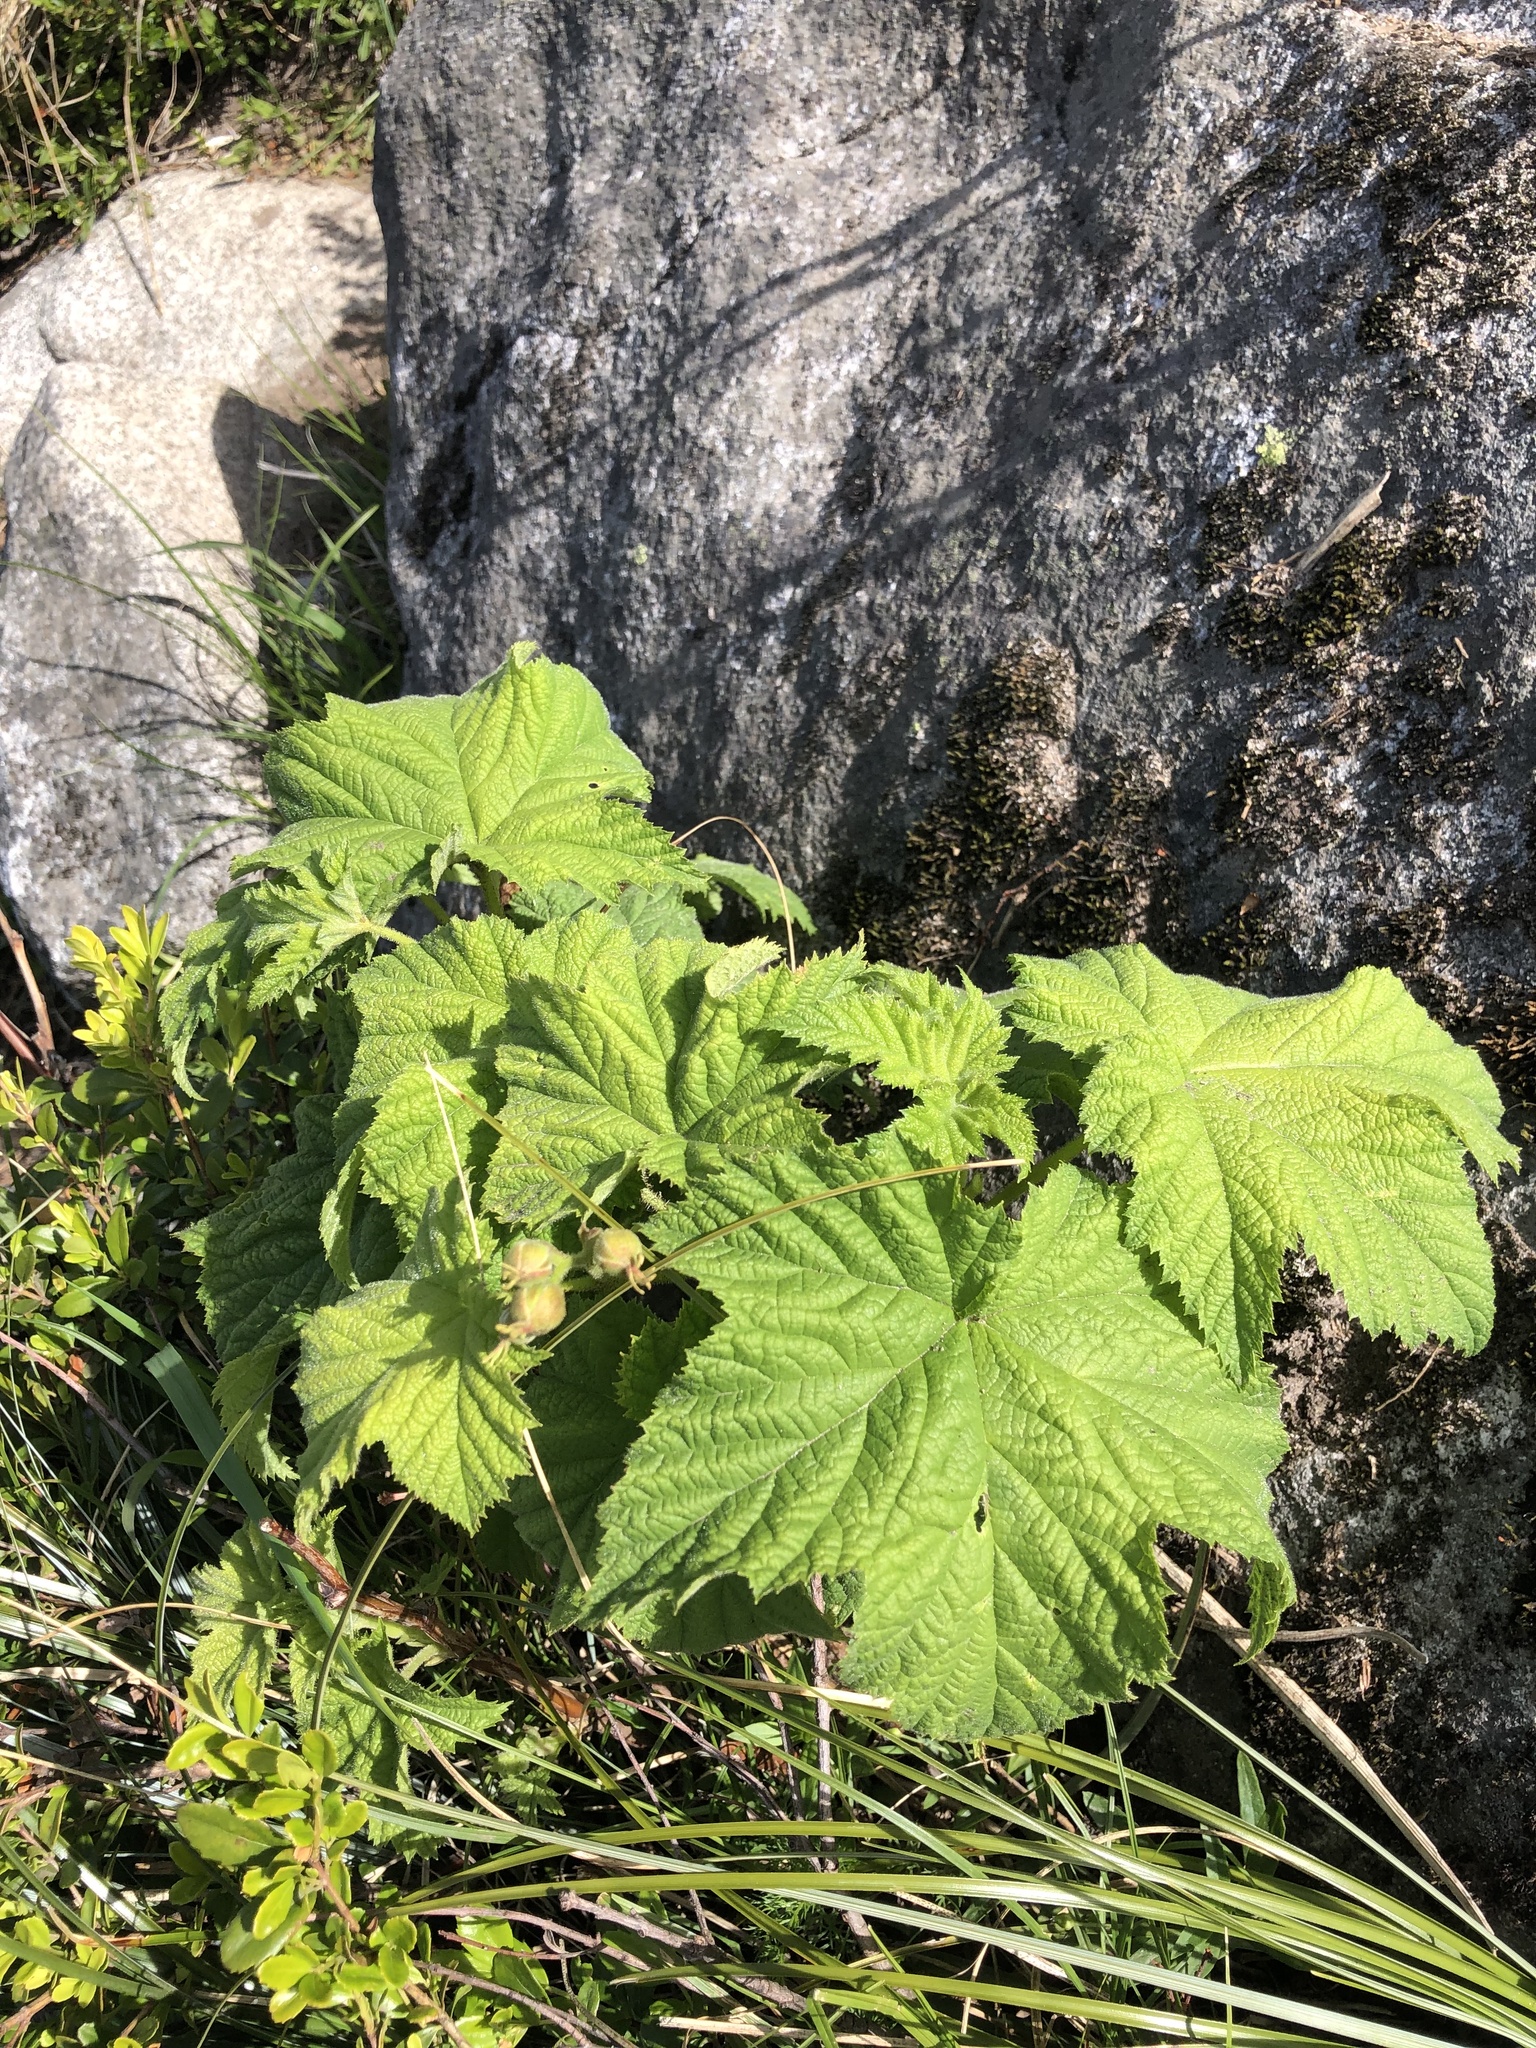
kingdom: Plantae
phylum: Tracheophyta
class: Magnoliopsida
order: Rosales
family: Rosaceae
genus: Rubus
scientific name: Rubus parviflorus
